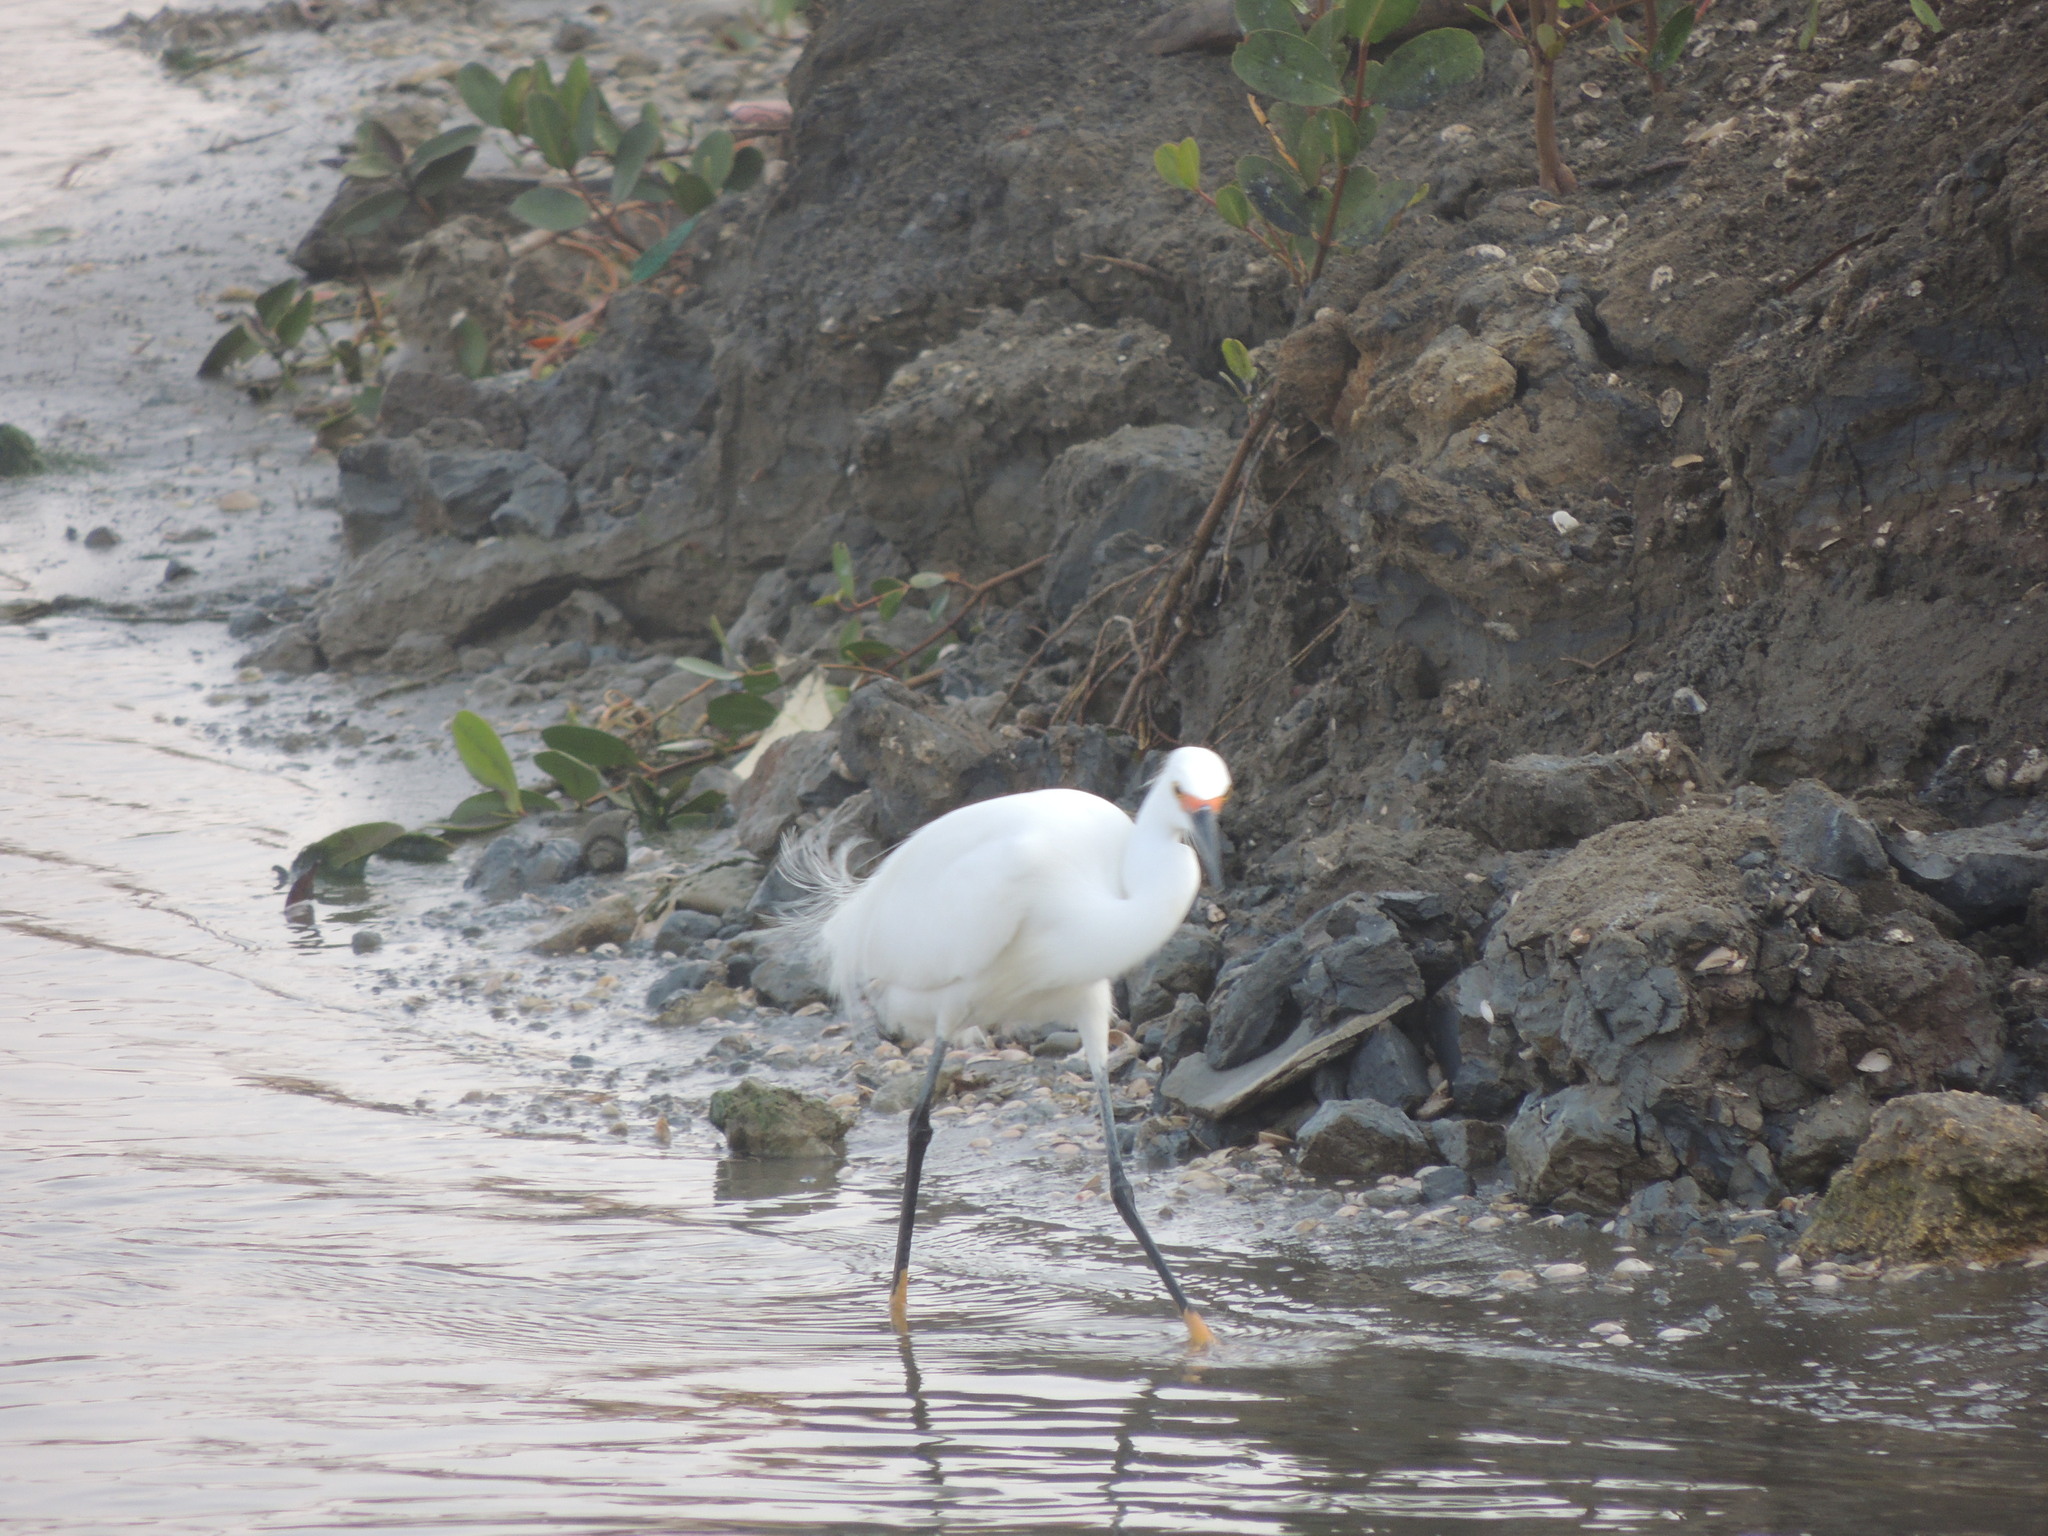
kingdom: Animalia
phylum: Chordata
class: Aves
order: Pelecaniformes
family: Ardeidae
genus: Egretta
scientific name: Egretta thula
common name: Snowy egret
